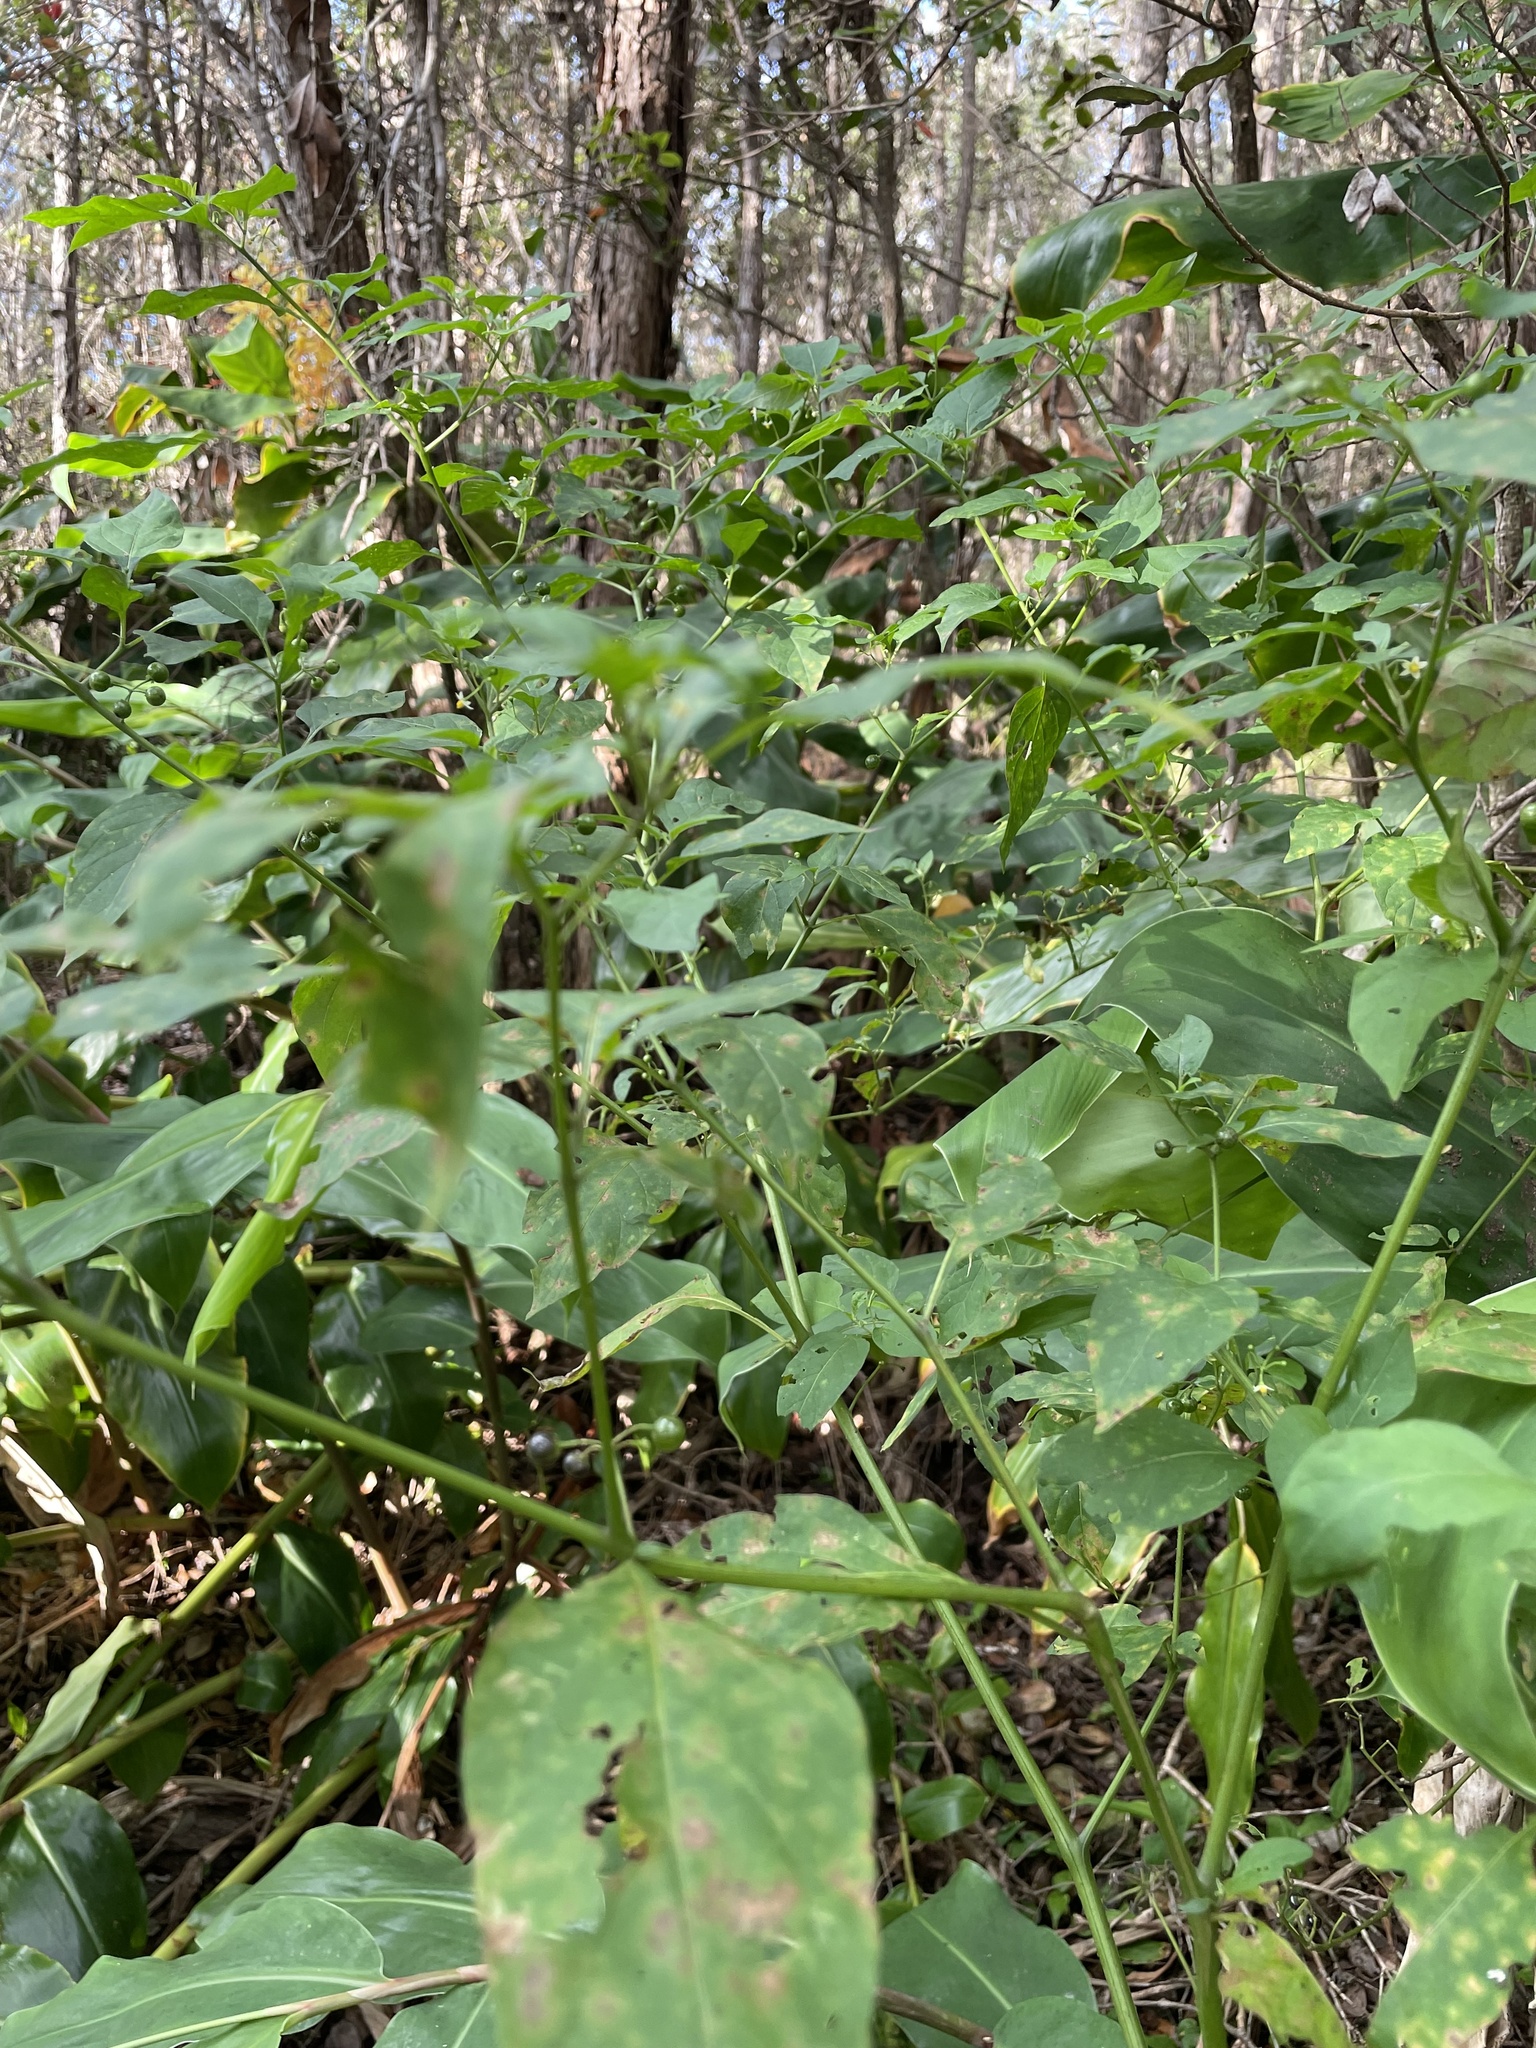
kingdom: Plantae
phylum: Tracheophyta
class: Magnoliopsida
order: Solanales
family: Solanaceae
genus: Solanum
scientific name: Solanum americanum
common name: American black nightshade
